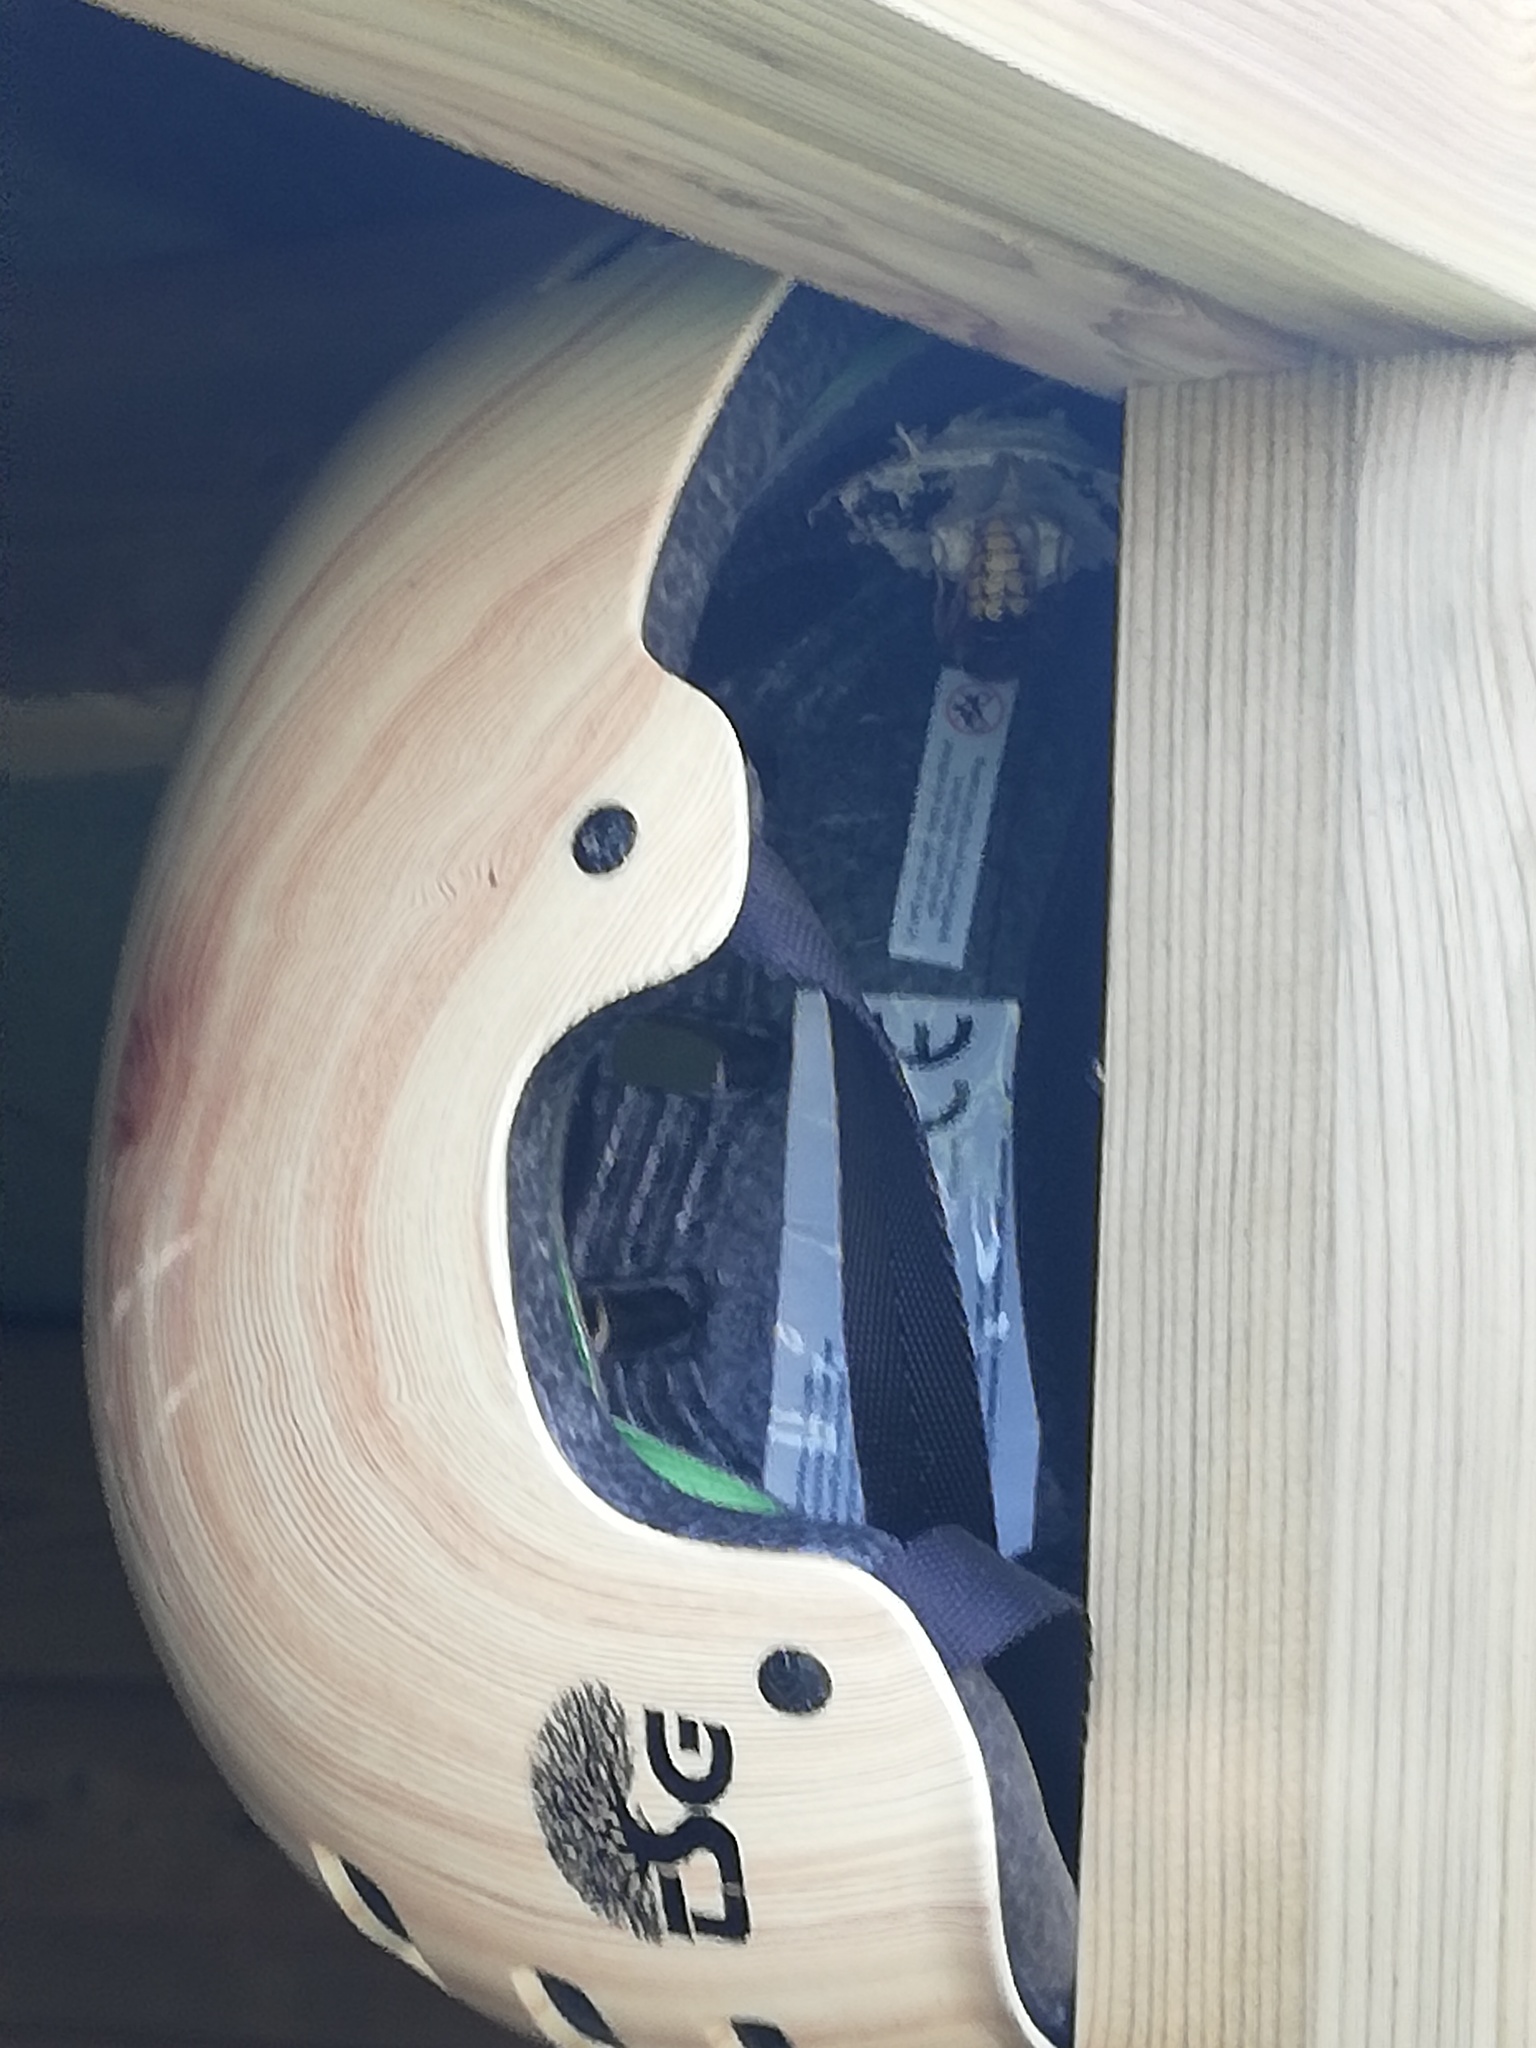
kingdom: Animalia
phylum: Arthropoda
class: Insecta
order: Hymenoptera
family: Vespidae
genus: Vespa
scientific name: Vespa crabro
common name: Hornet
